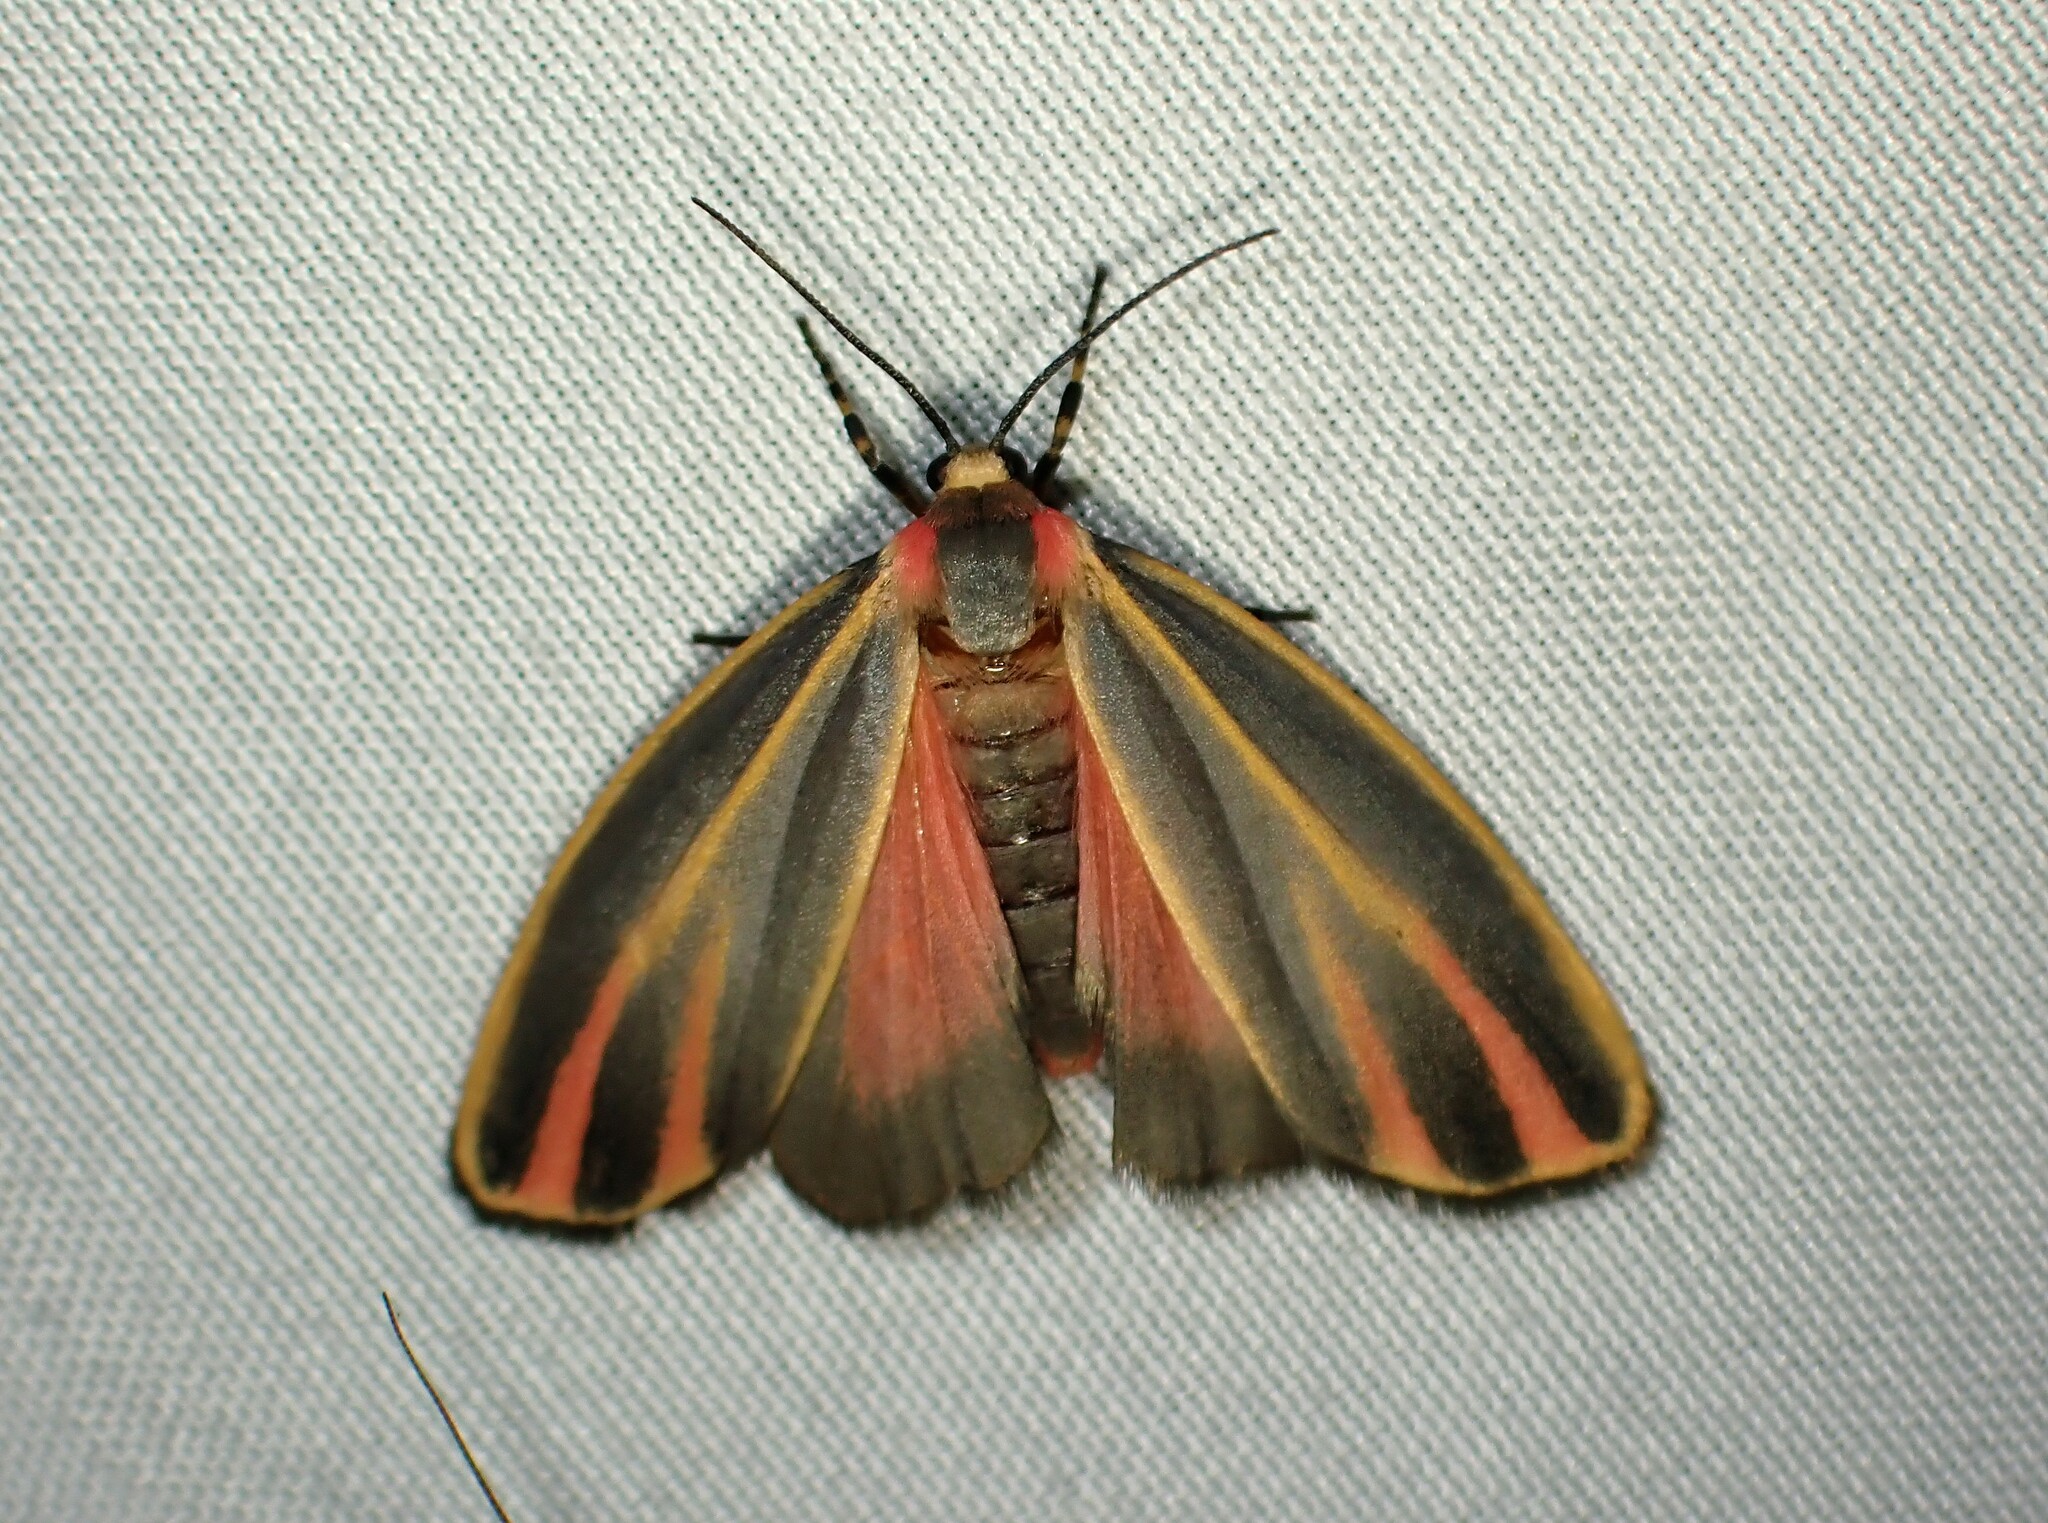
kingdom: Animalia
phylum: Arthropoda
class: Insecta
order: Lepidoptera
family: Erebidae
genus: Hypoprepia
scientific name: Hypoprepia fucosa
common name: Painted lichen moth
